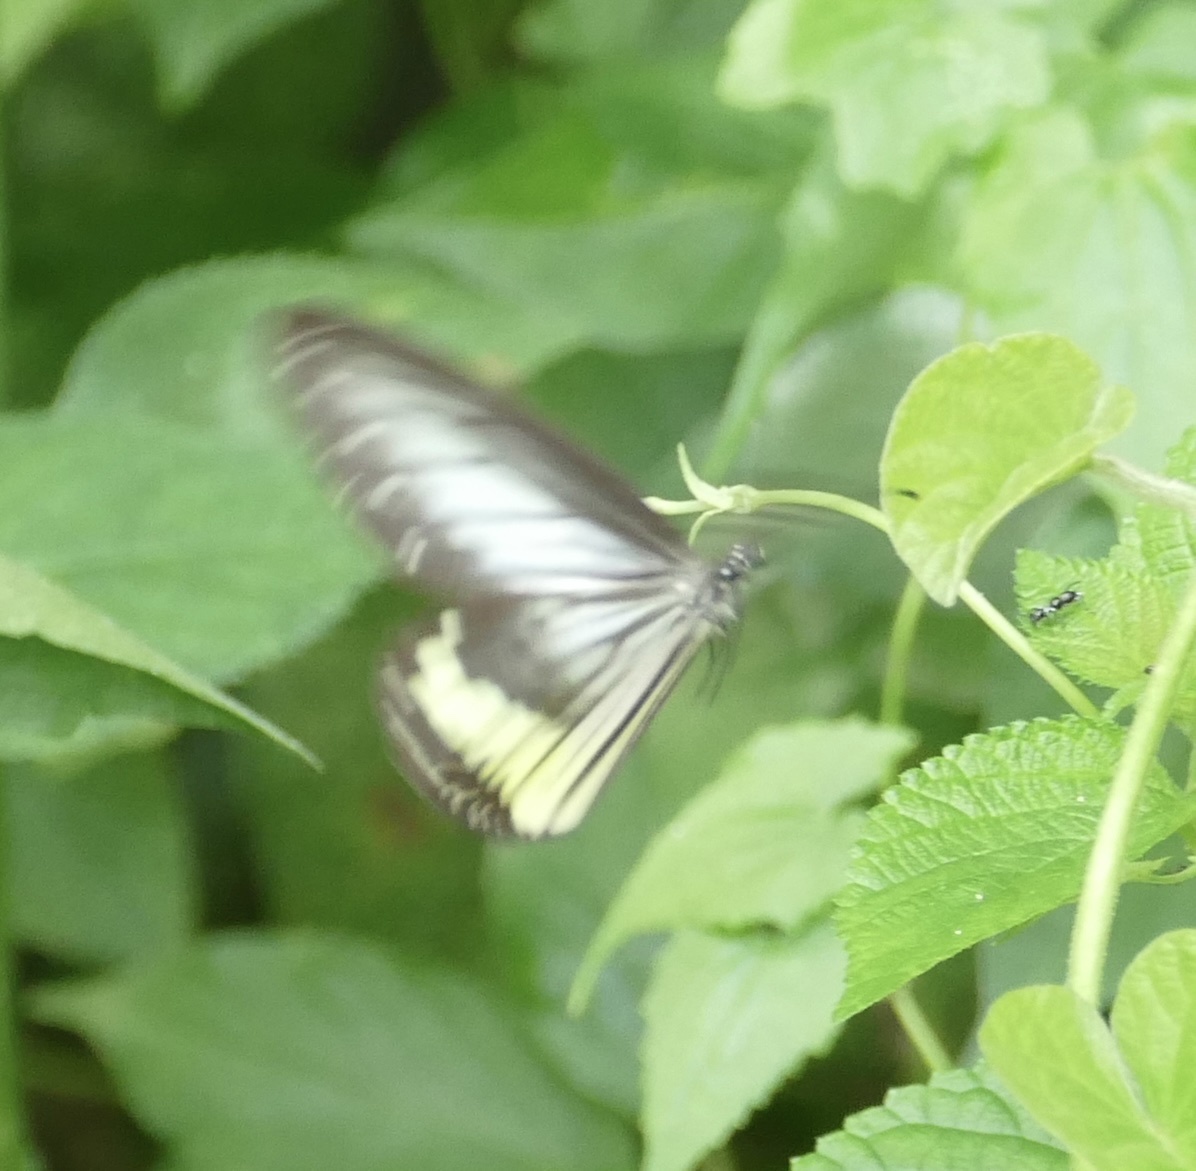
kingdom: Animalia
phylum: Arthropoda
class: Insecta
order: Lepidoptera
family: Nymphalidae
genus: Ideopsis
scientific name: Ideopsis vitrea
